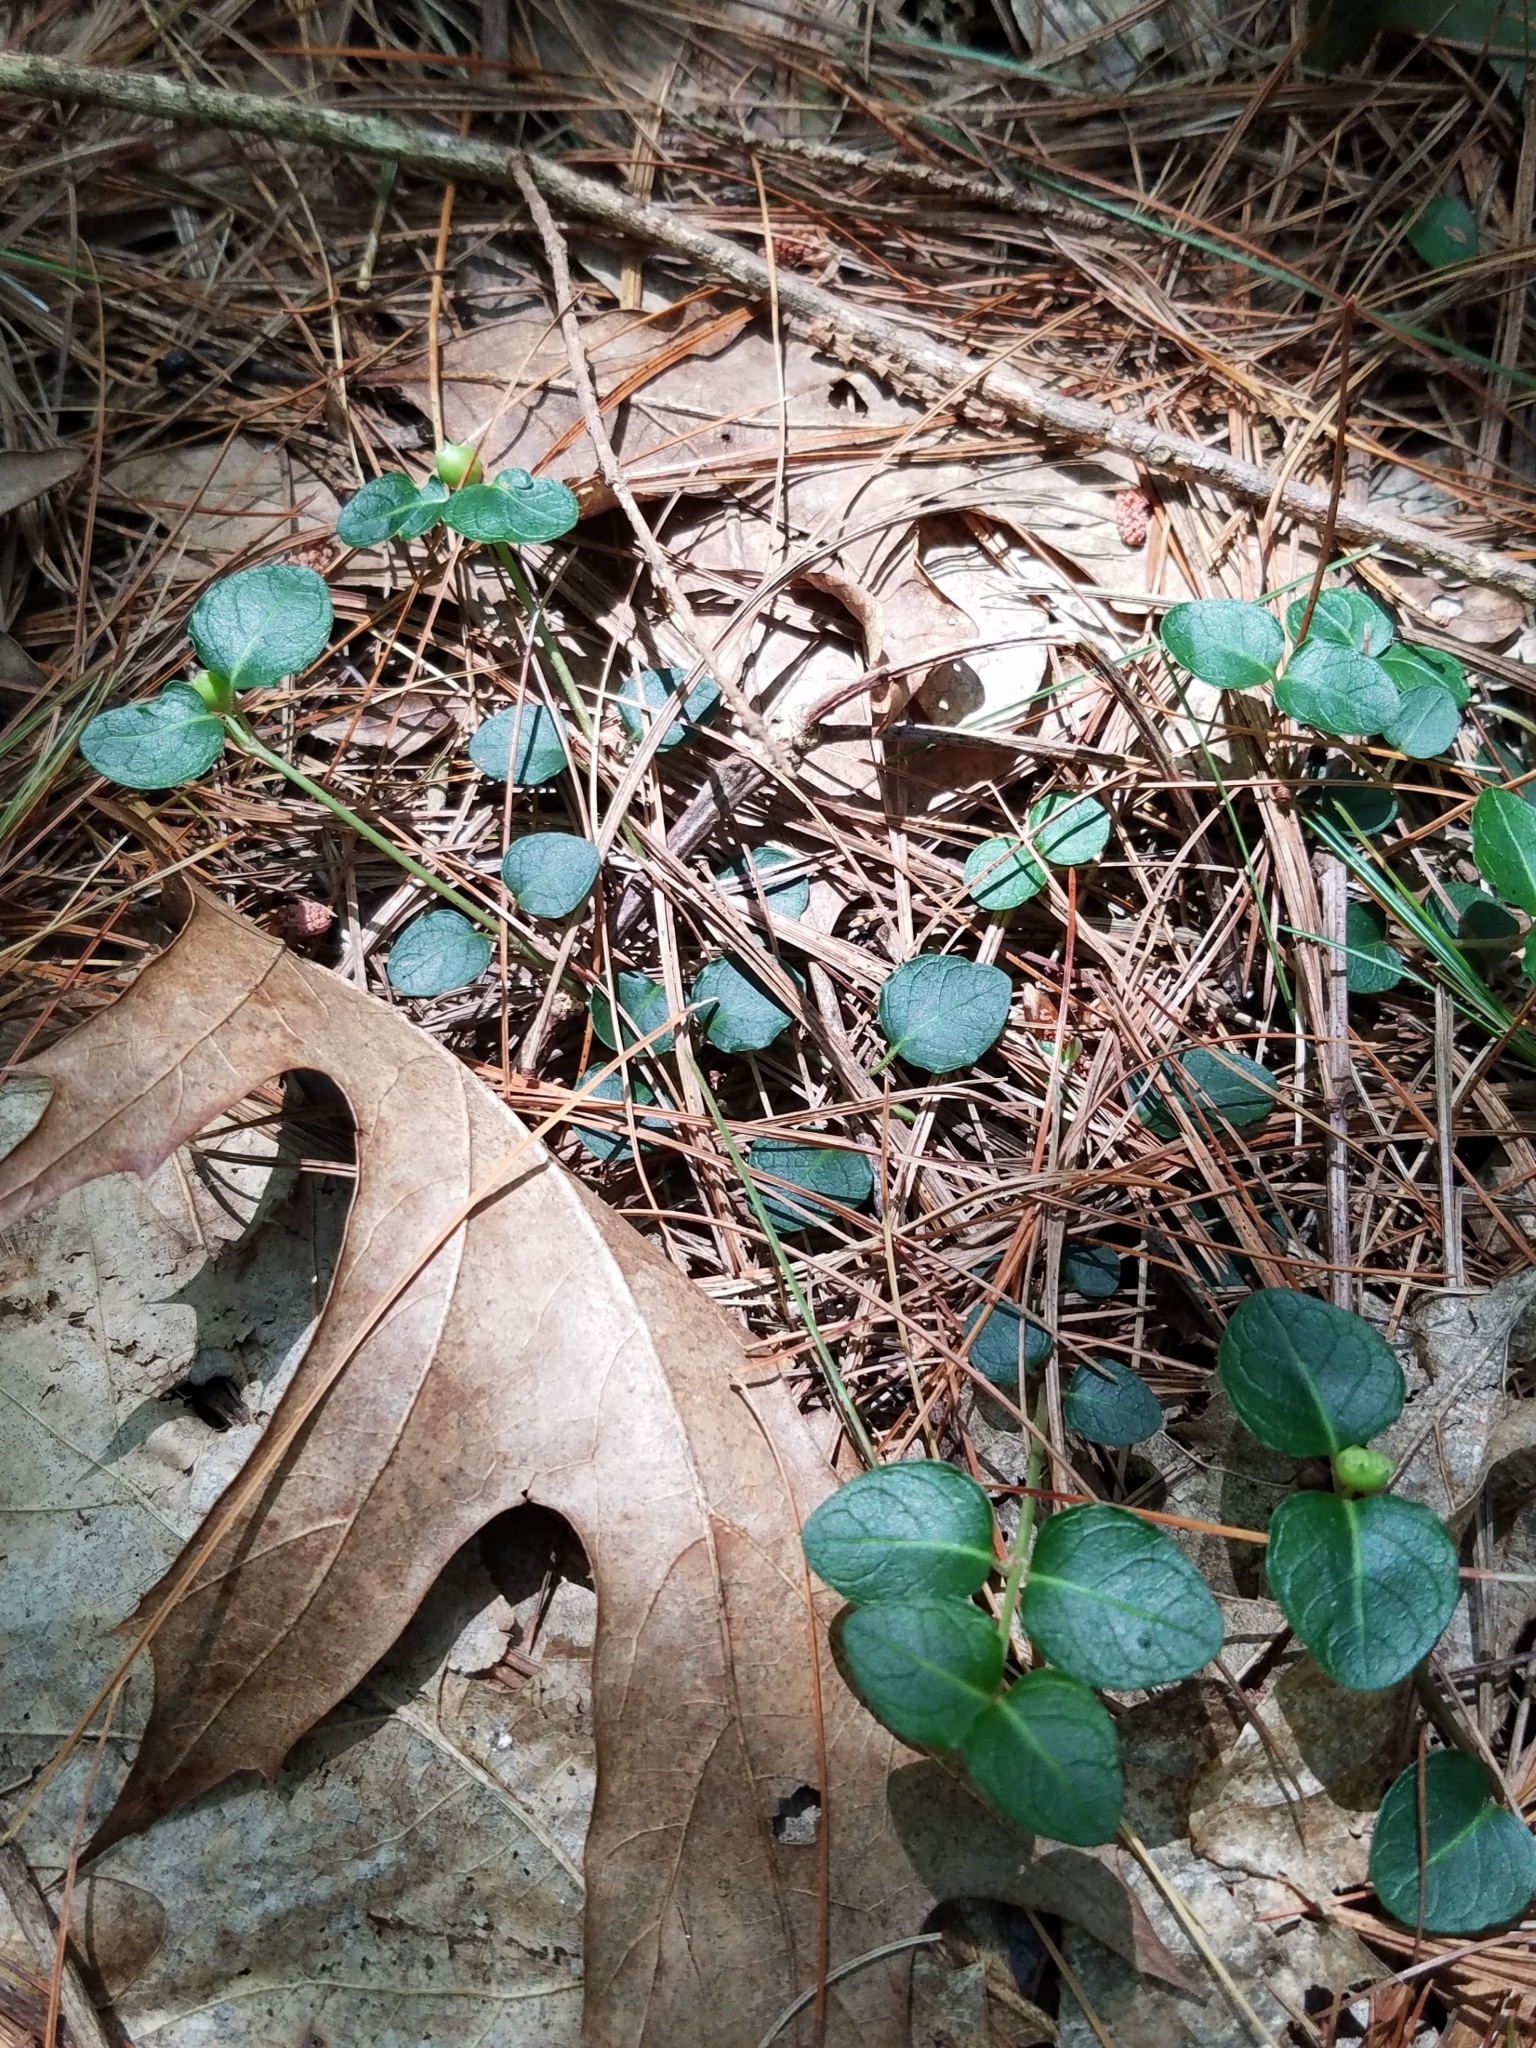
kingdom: Plantae
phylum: Tracheophyta
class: Magnoliopsida
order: Gentianales
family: Rubiaceae
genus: Mitchella
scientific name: Mitchella repens
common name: Partridge-berry
